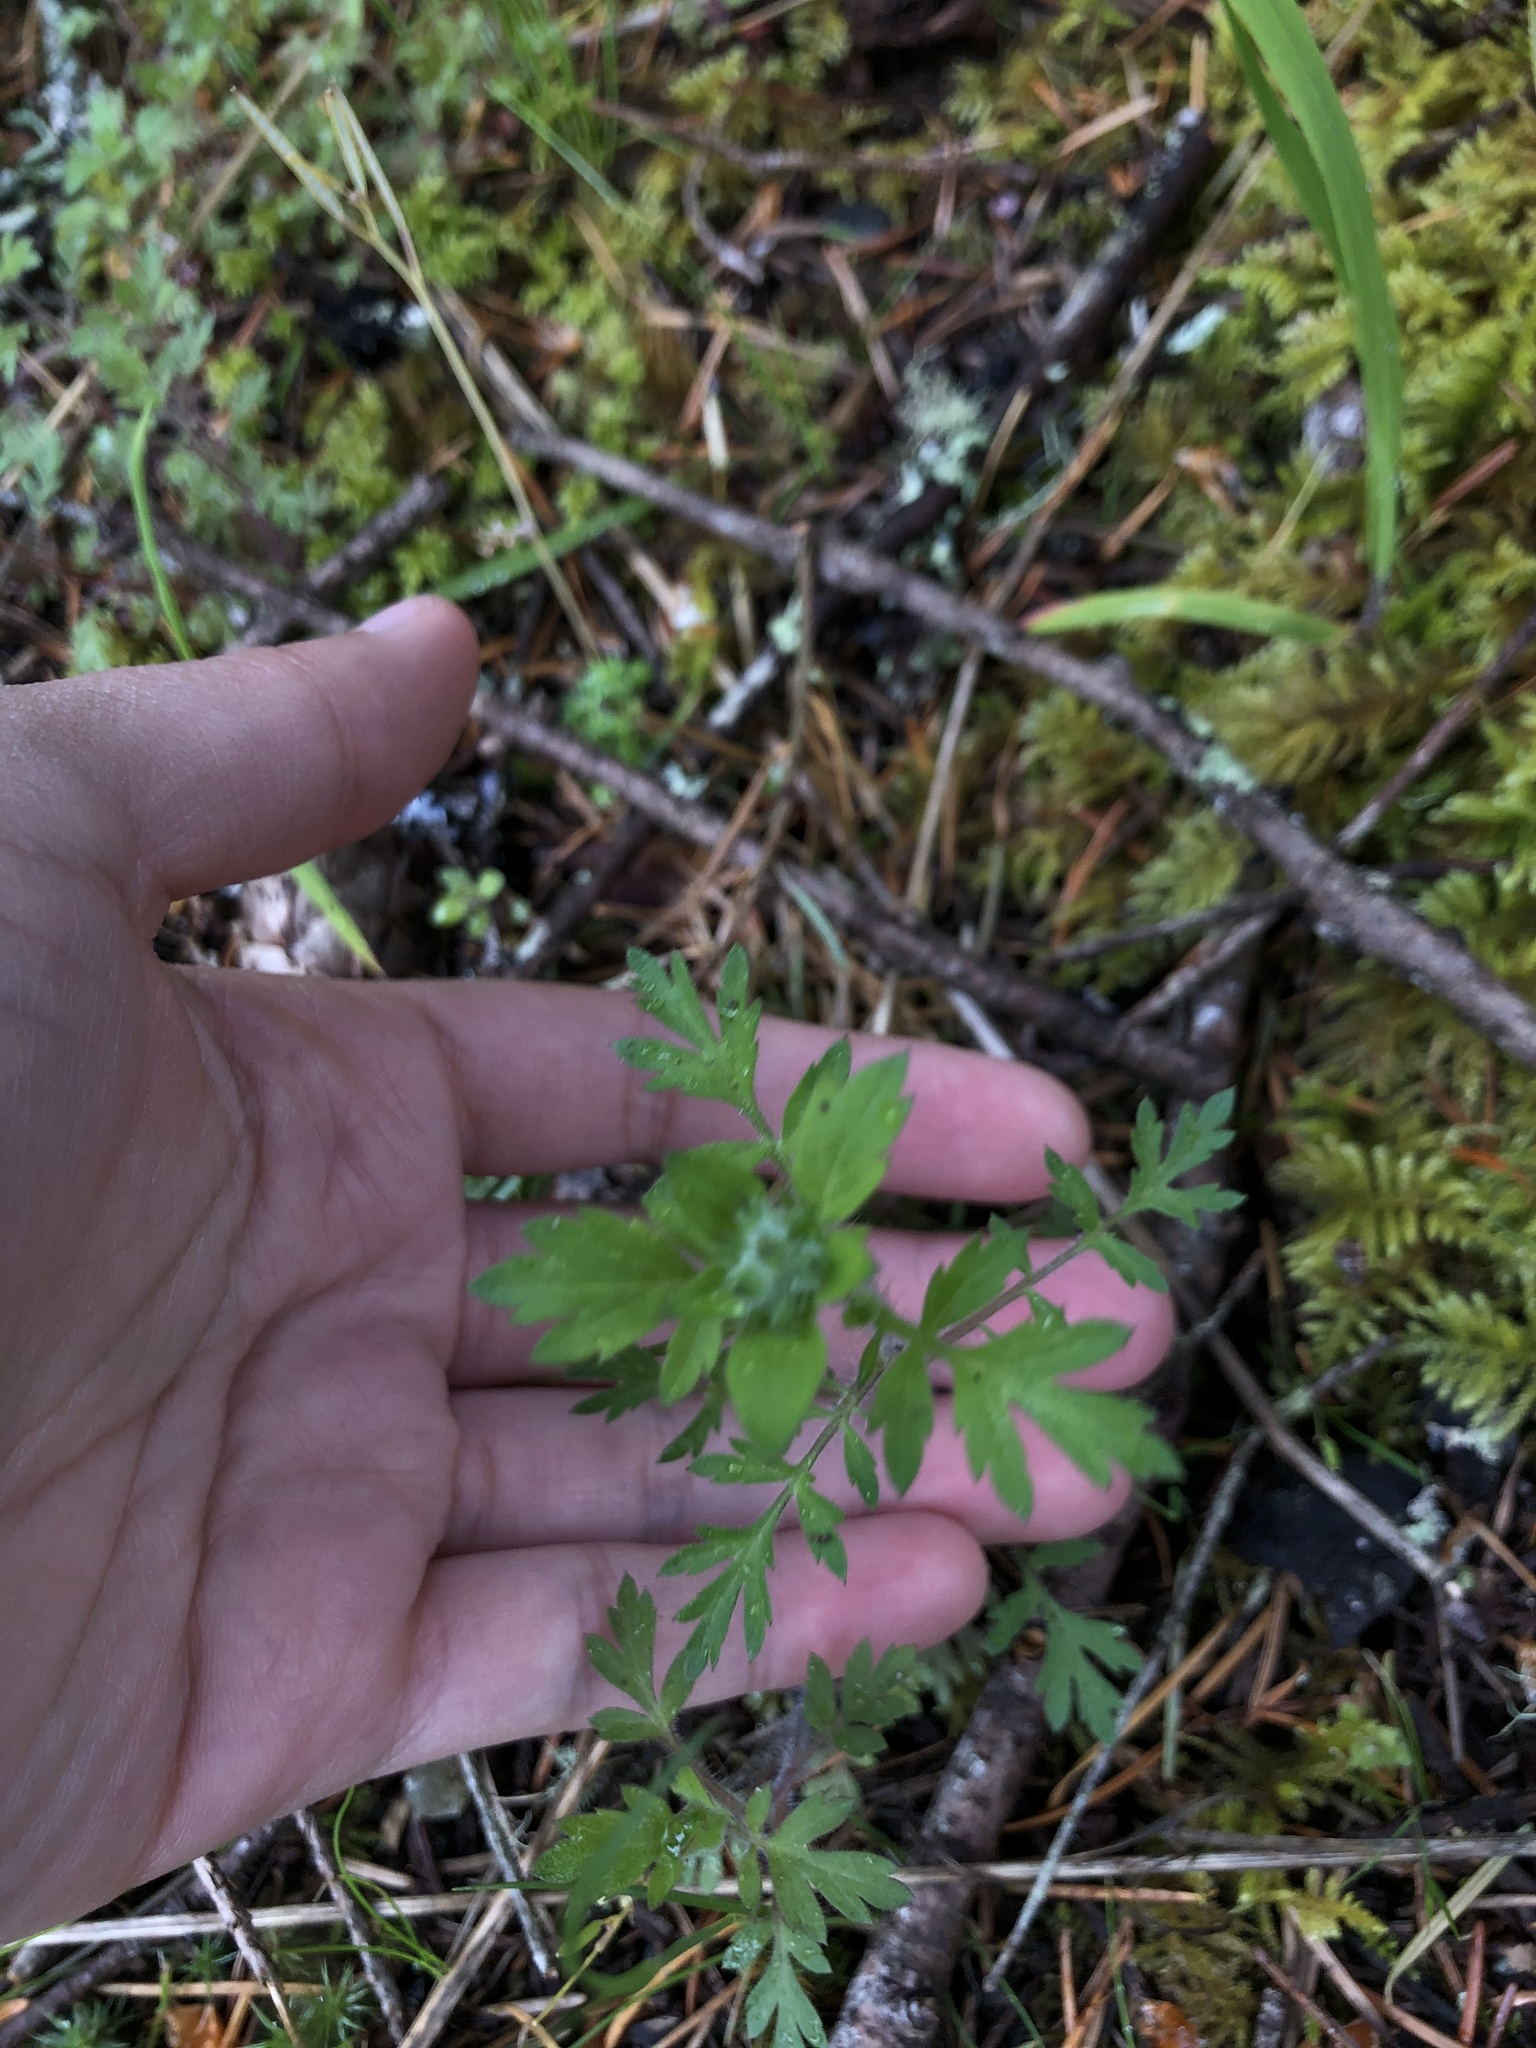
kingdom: Plantae
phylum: Tracheophyta
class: Magnoliopsida
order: Ericales
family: Polemoniaceae
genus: Collomia
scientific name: Collomia heterophylla
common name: Variable-leaved collomia
